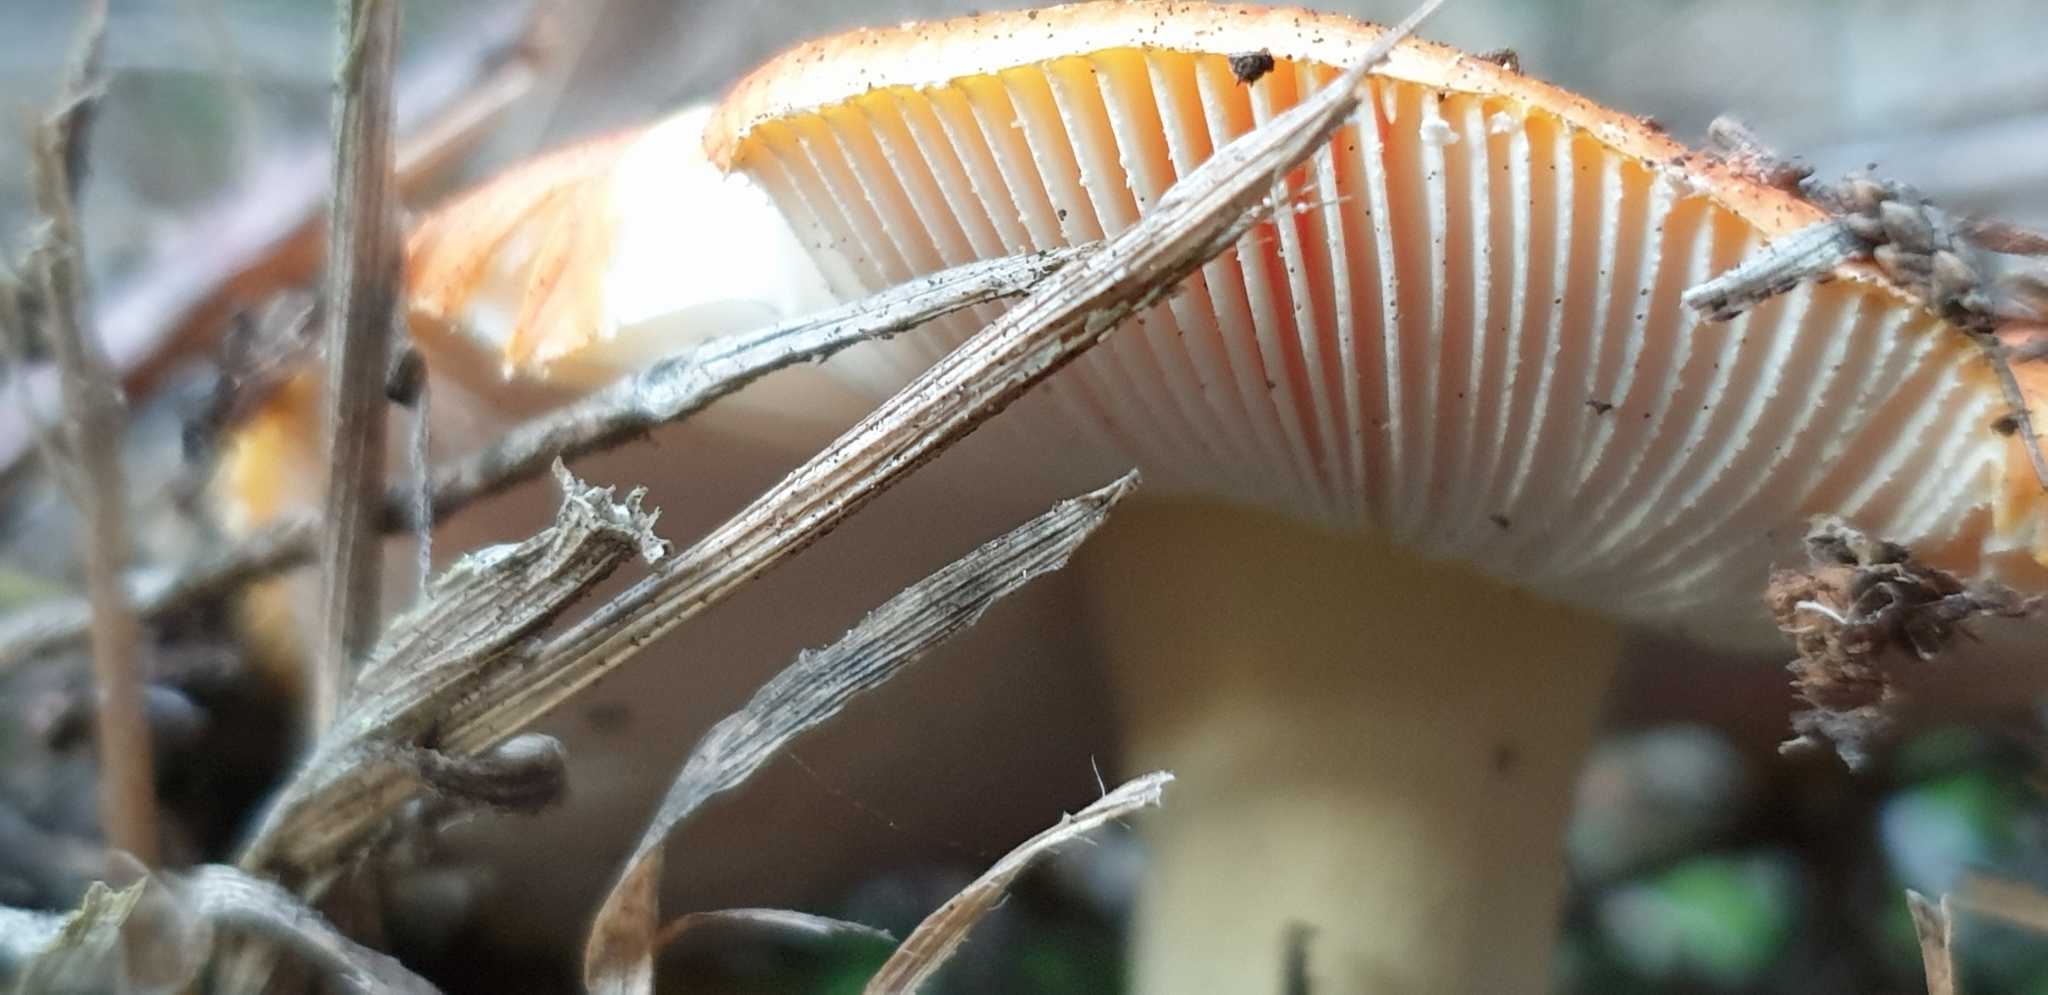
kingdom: Fungi
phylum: Basidiomycota
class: Agaricomycetes
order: Agaricales
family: Amanitaceae
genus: Amanita
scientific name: Amanita muscaria
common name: Fly agaric
